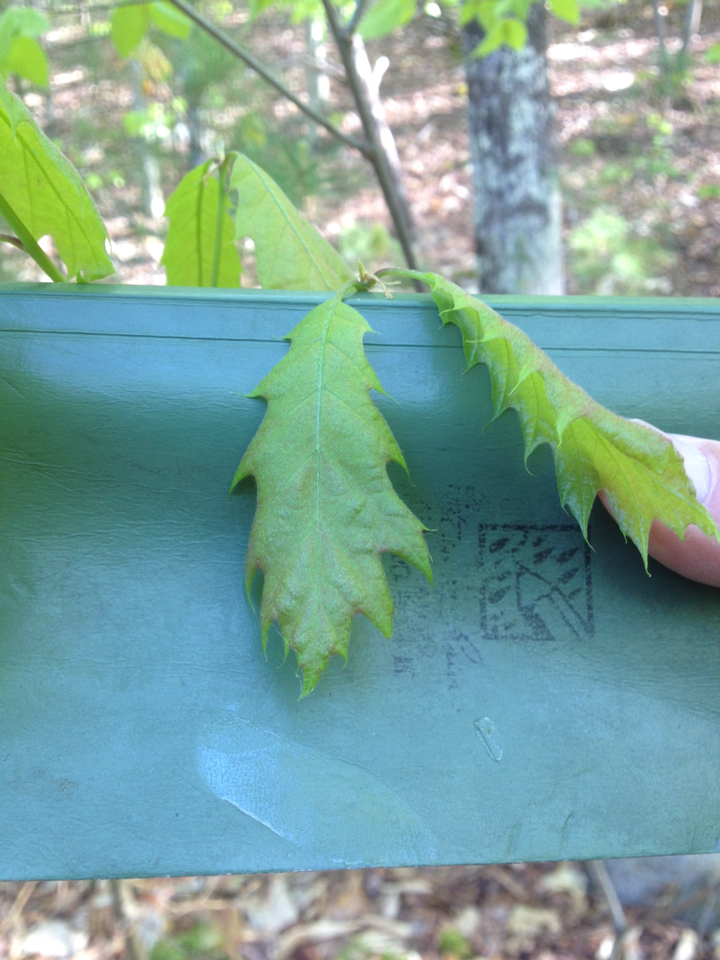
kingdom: Plantae
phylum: Tracheophyta
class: Magnoliopsida
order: Fagales
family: Fagaceae
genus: Quercus
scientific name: Quercus rubra
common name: Red oak
